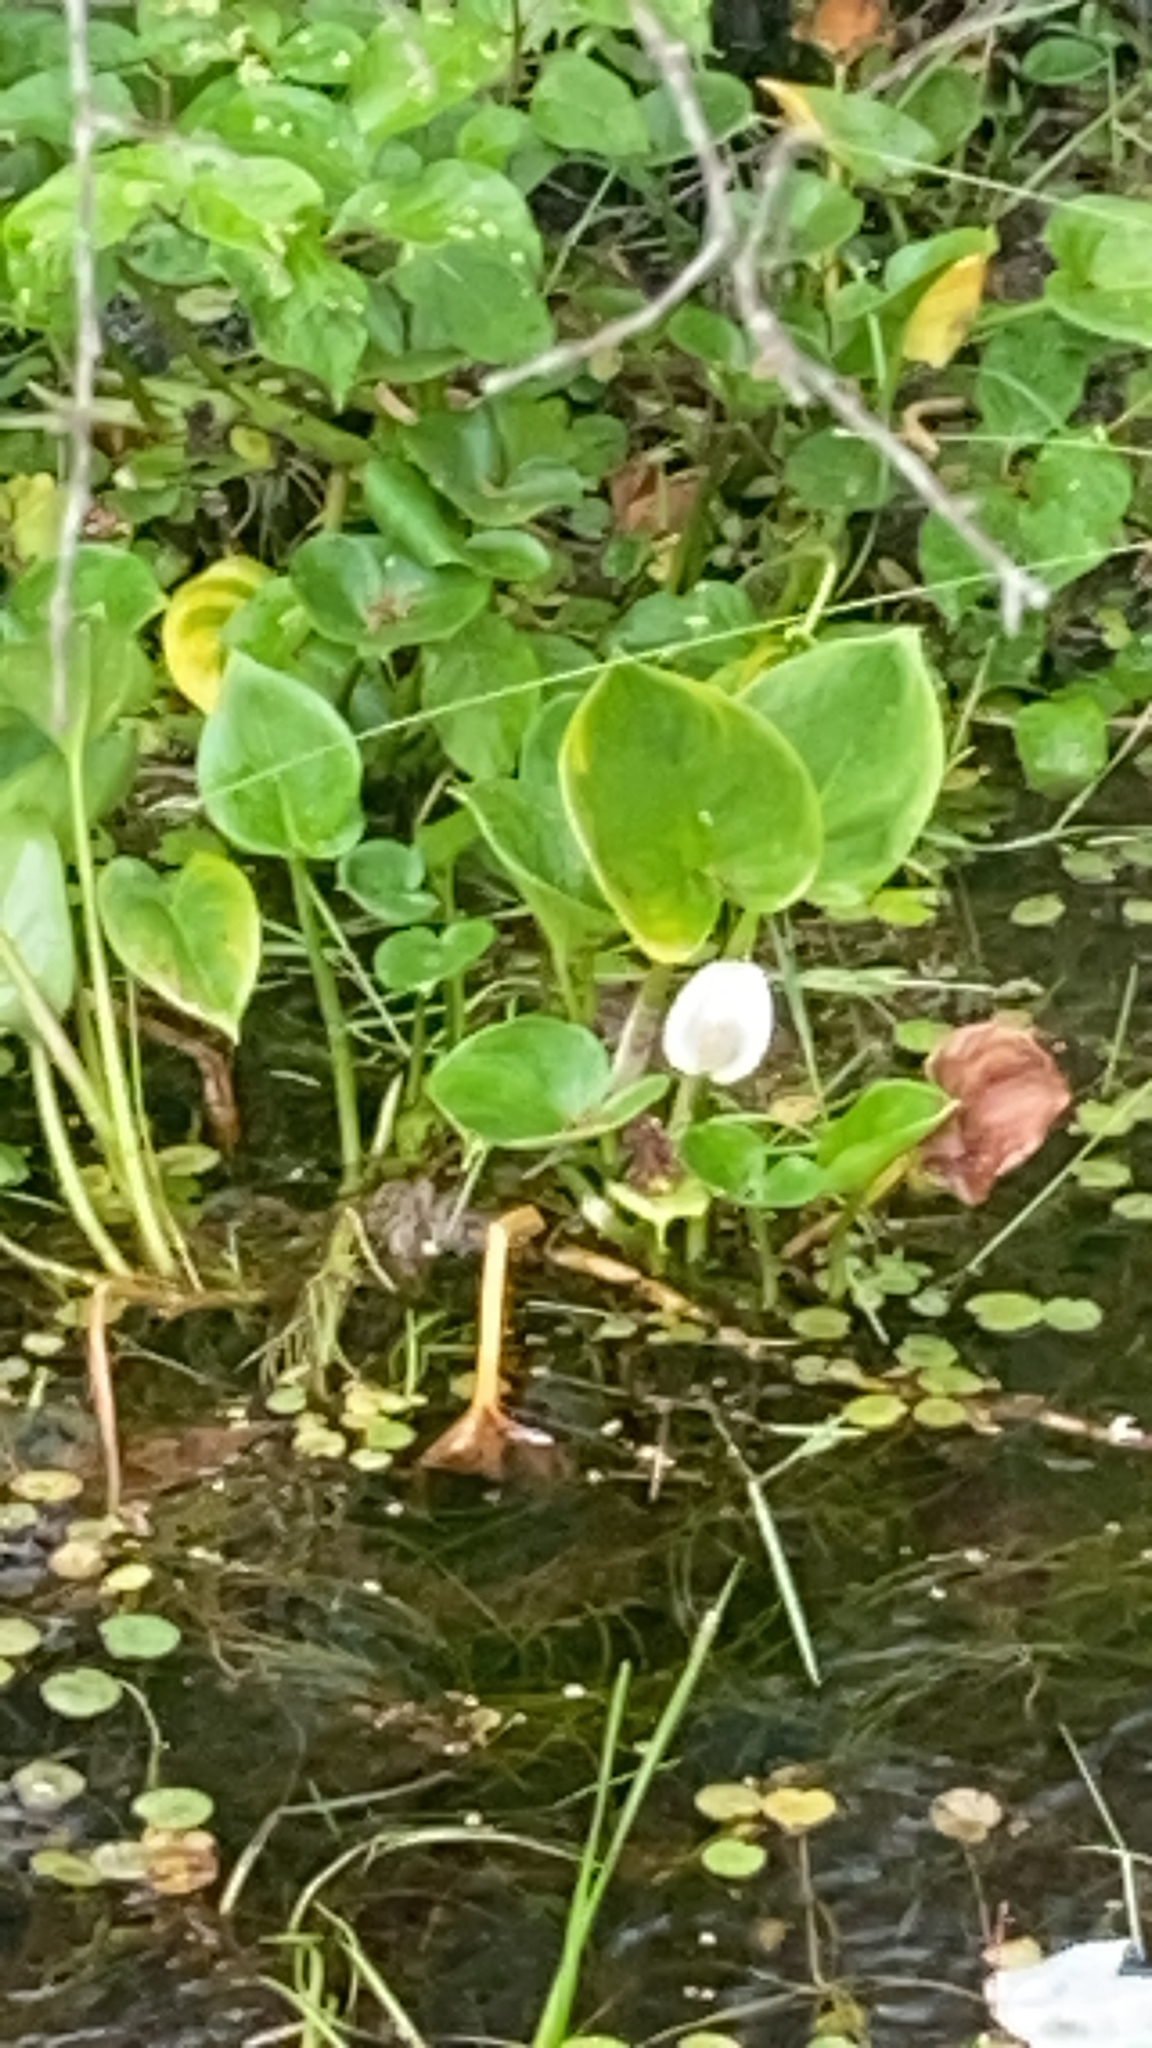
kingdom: Plantae
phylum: Tracheophyta
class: Liliopsida
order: Alismatales
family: Araceae
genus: Calla
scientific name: Calla palustris
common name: Bog arum
